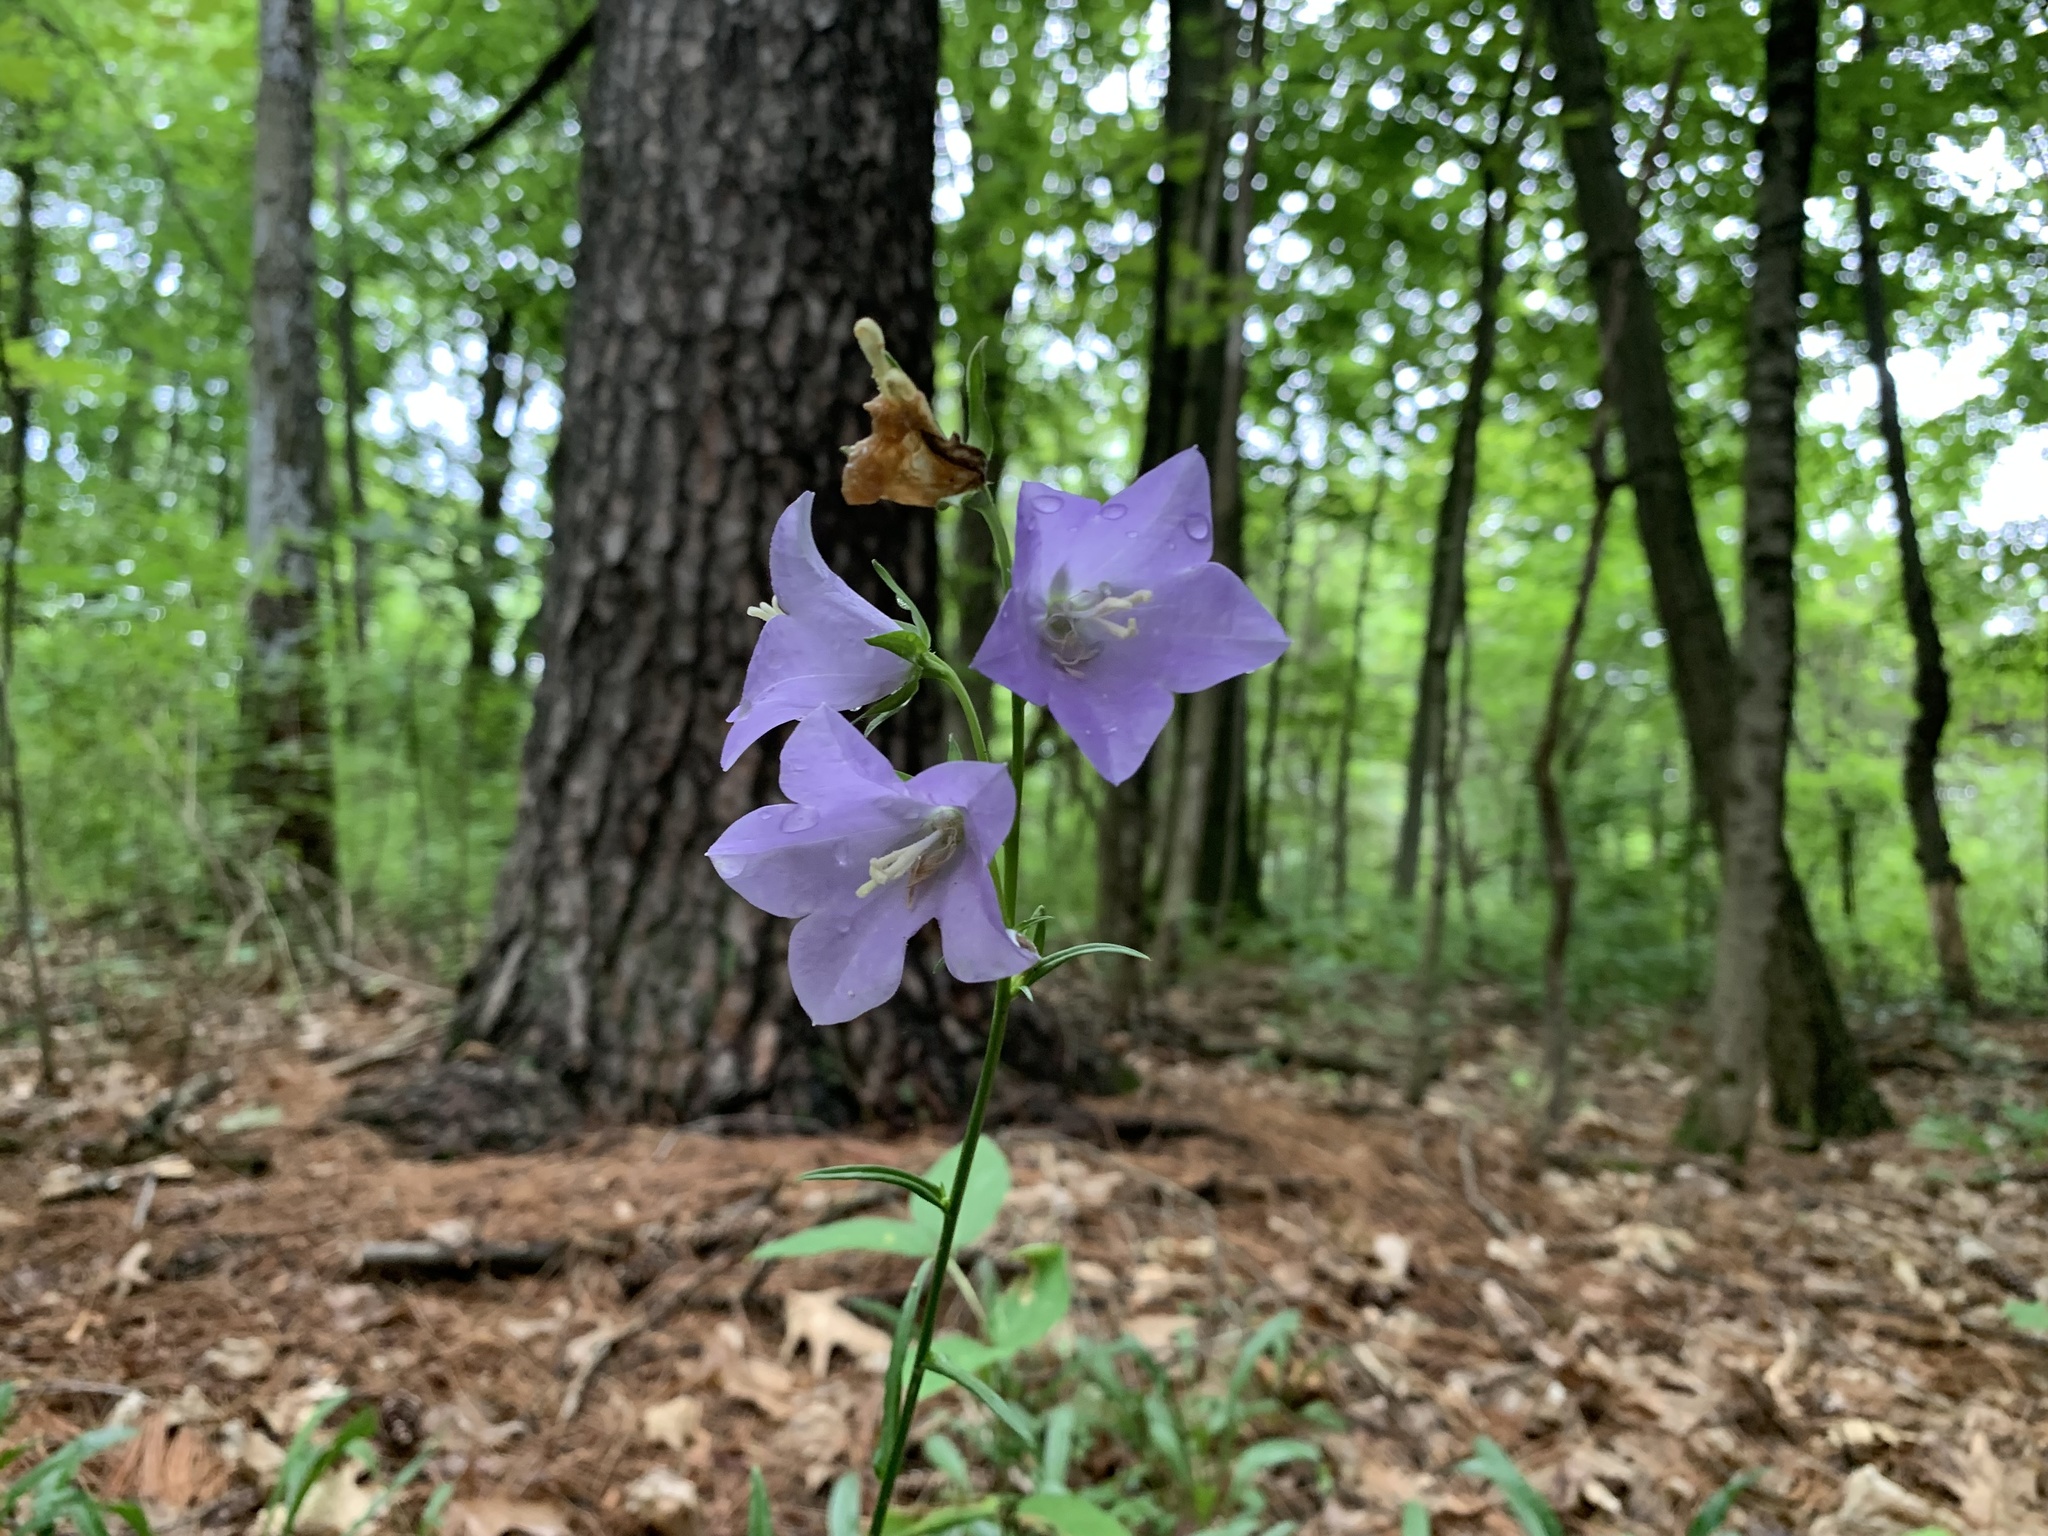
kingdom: Plantae
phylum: Tracheophyta
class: Magnoliopsida
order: Asterales
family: Campanulaceae
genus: Campanula
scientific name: Campanula intercedens
